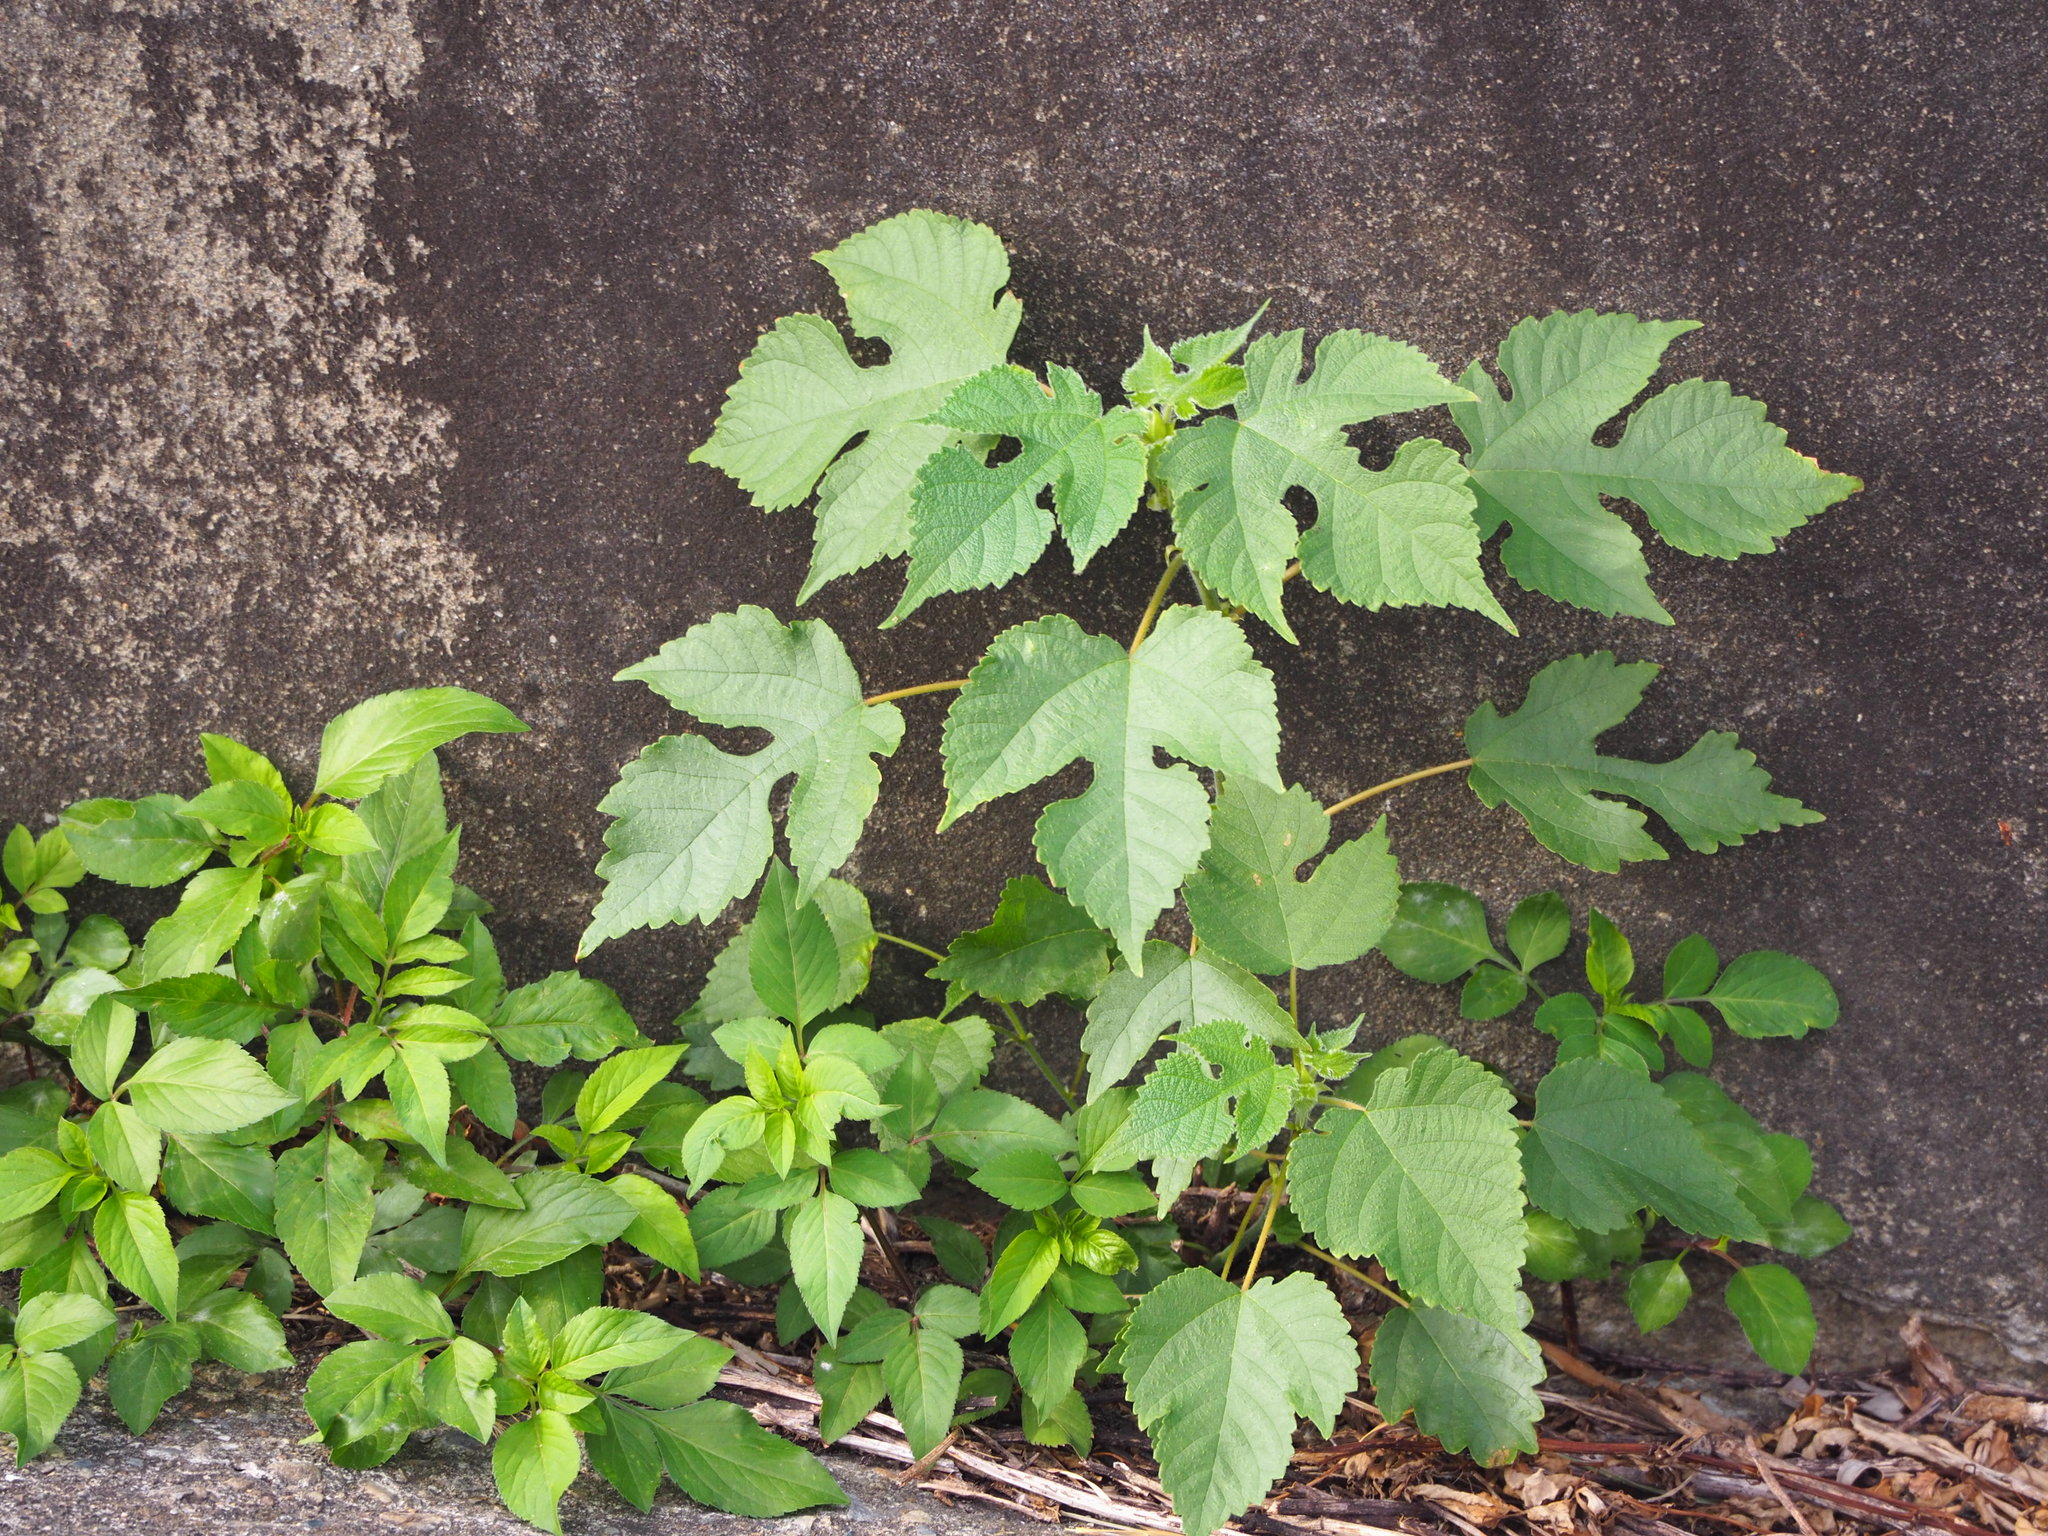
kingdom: Plantae
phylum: Tracheophyta
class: Magnoliopsida
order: Rosales
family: Moraceae
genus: Broussonetia
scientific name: Broussonetia papyrifera
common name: Paper mulberry
